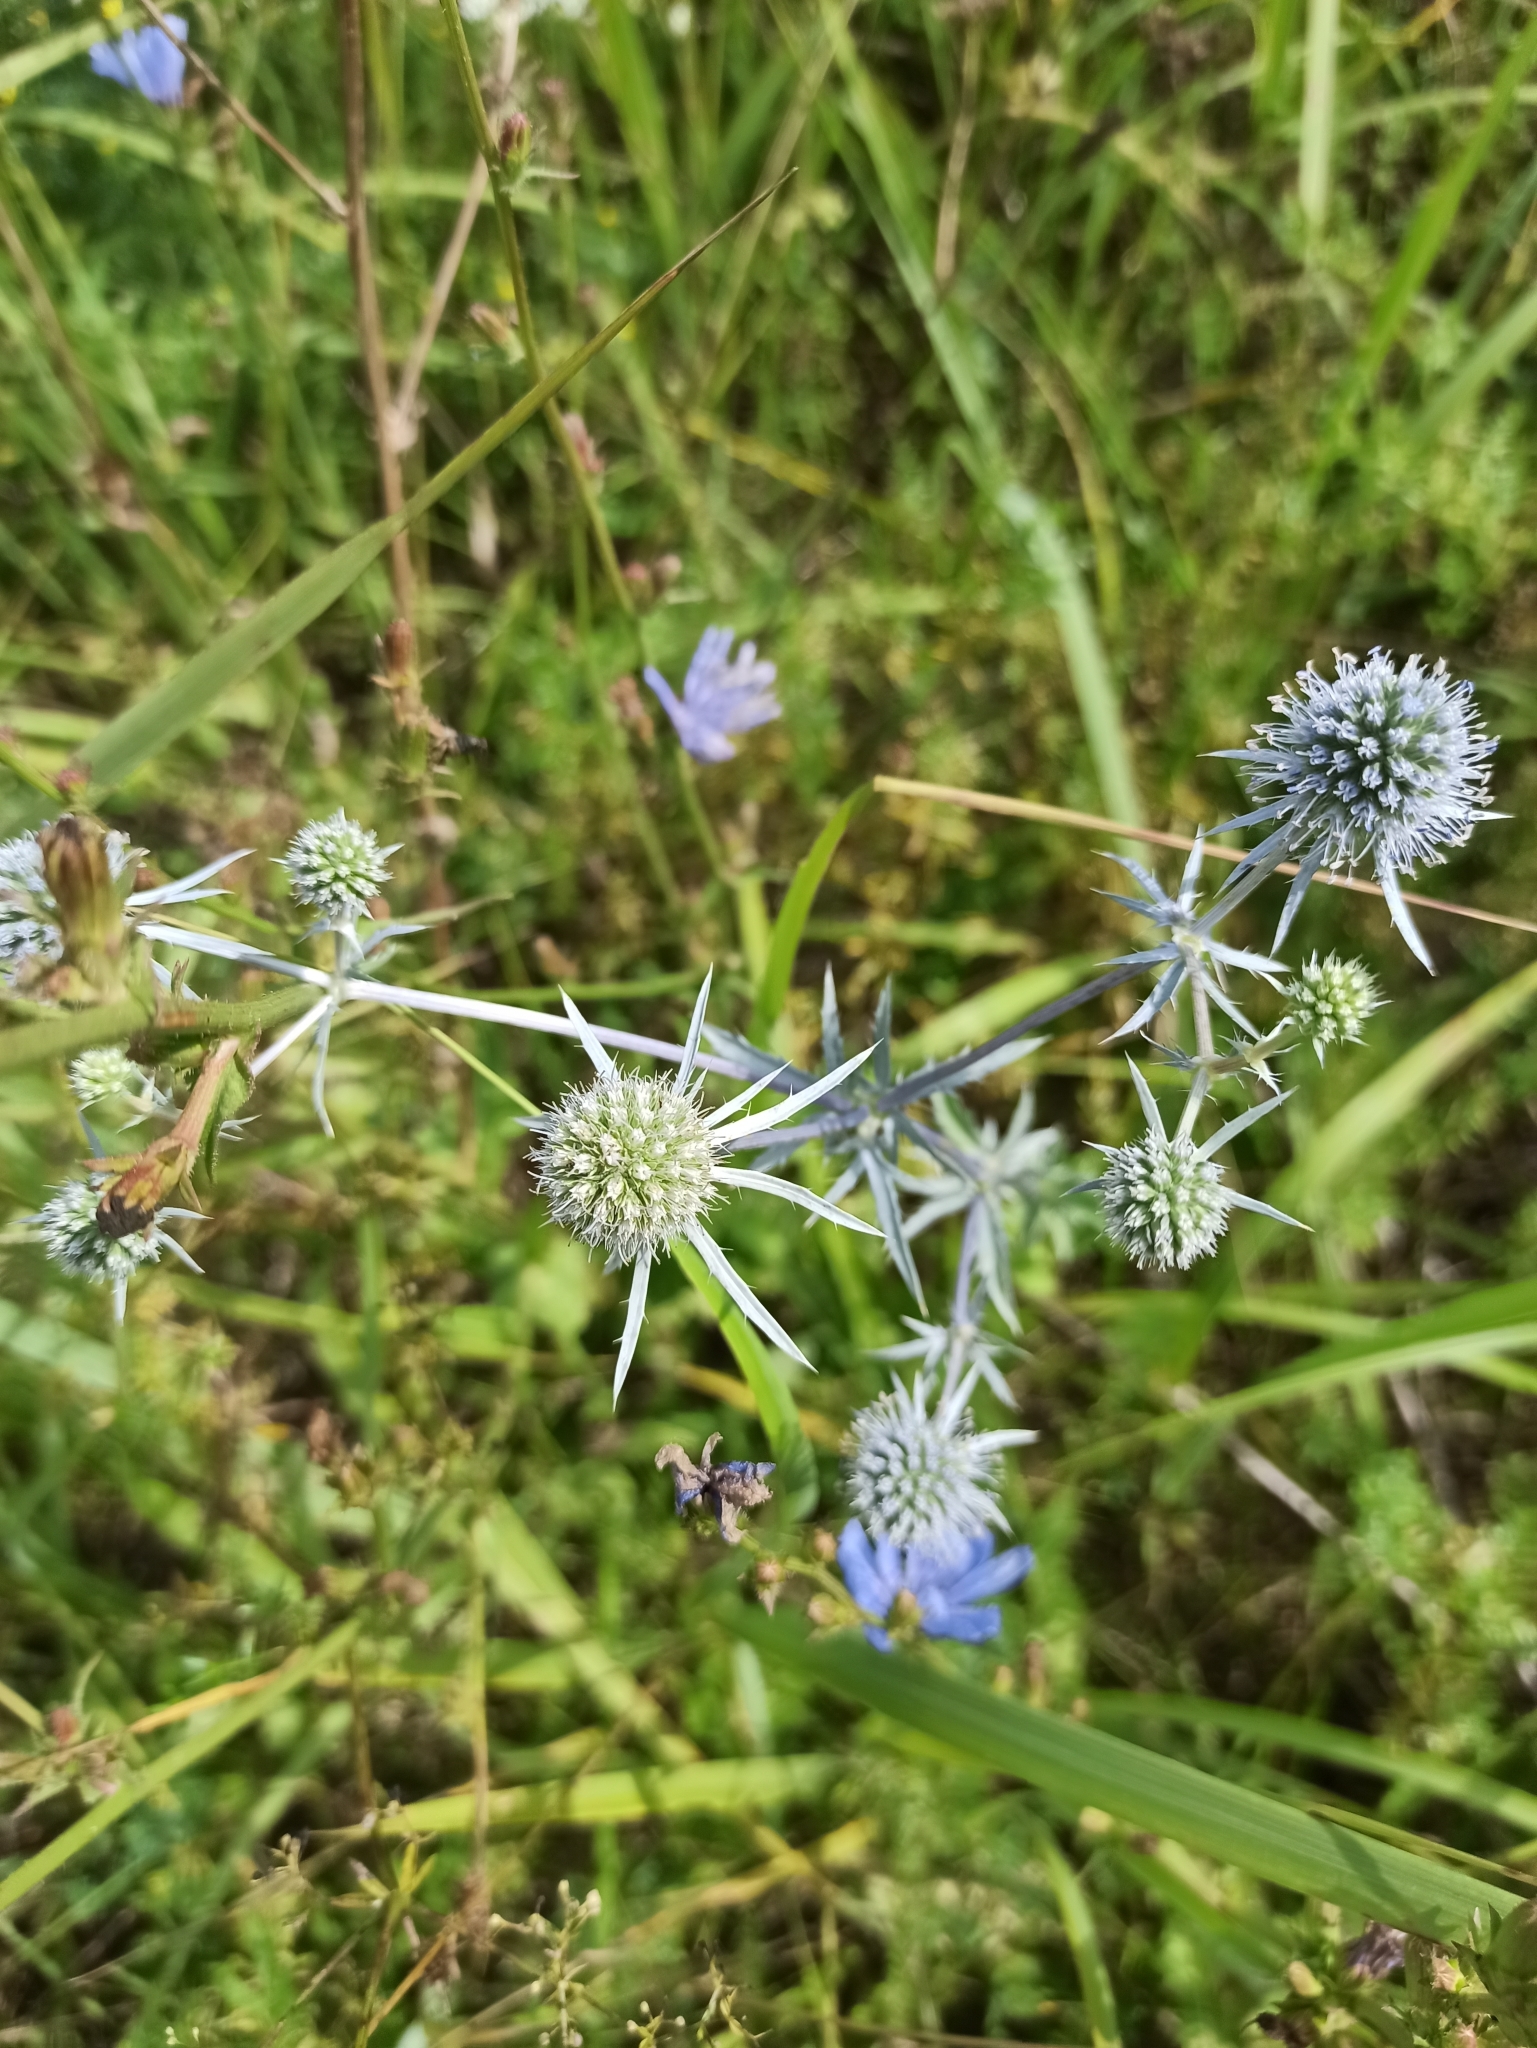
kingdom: Plantae
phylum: Tracheophyta
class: Magnoliopsida
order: Apiales
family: Apiaceae
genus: Eryngium
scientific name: Eryngium planum
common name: Blue eryngo
